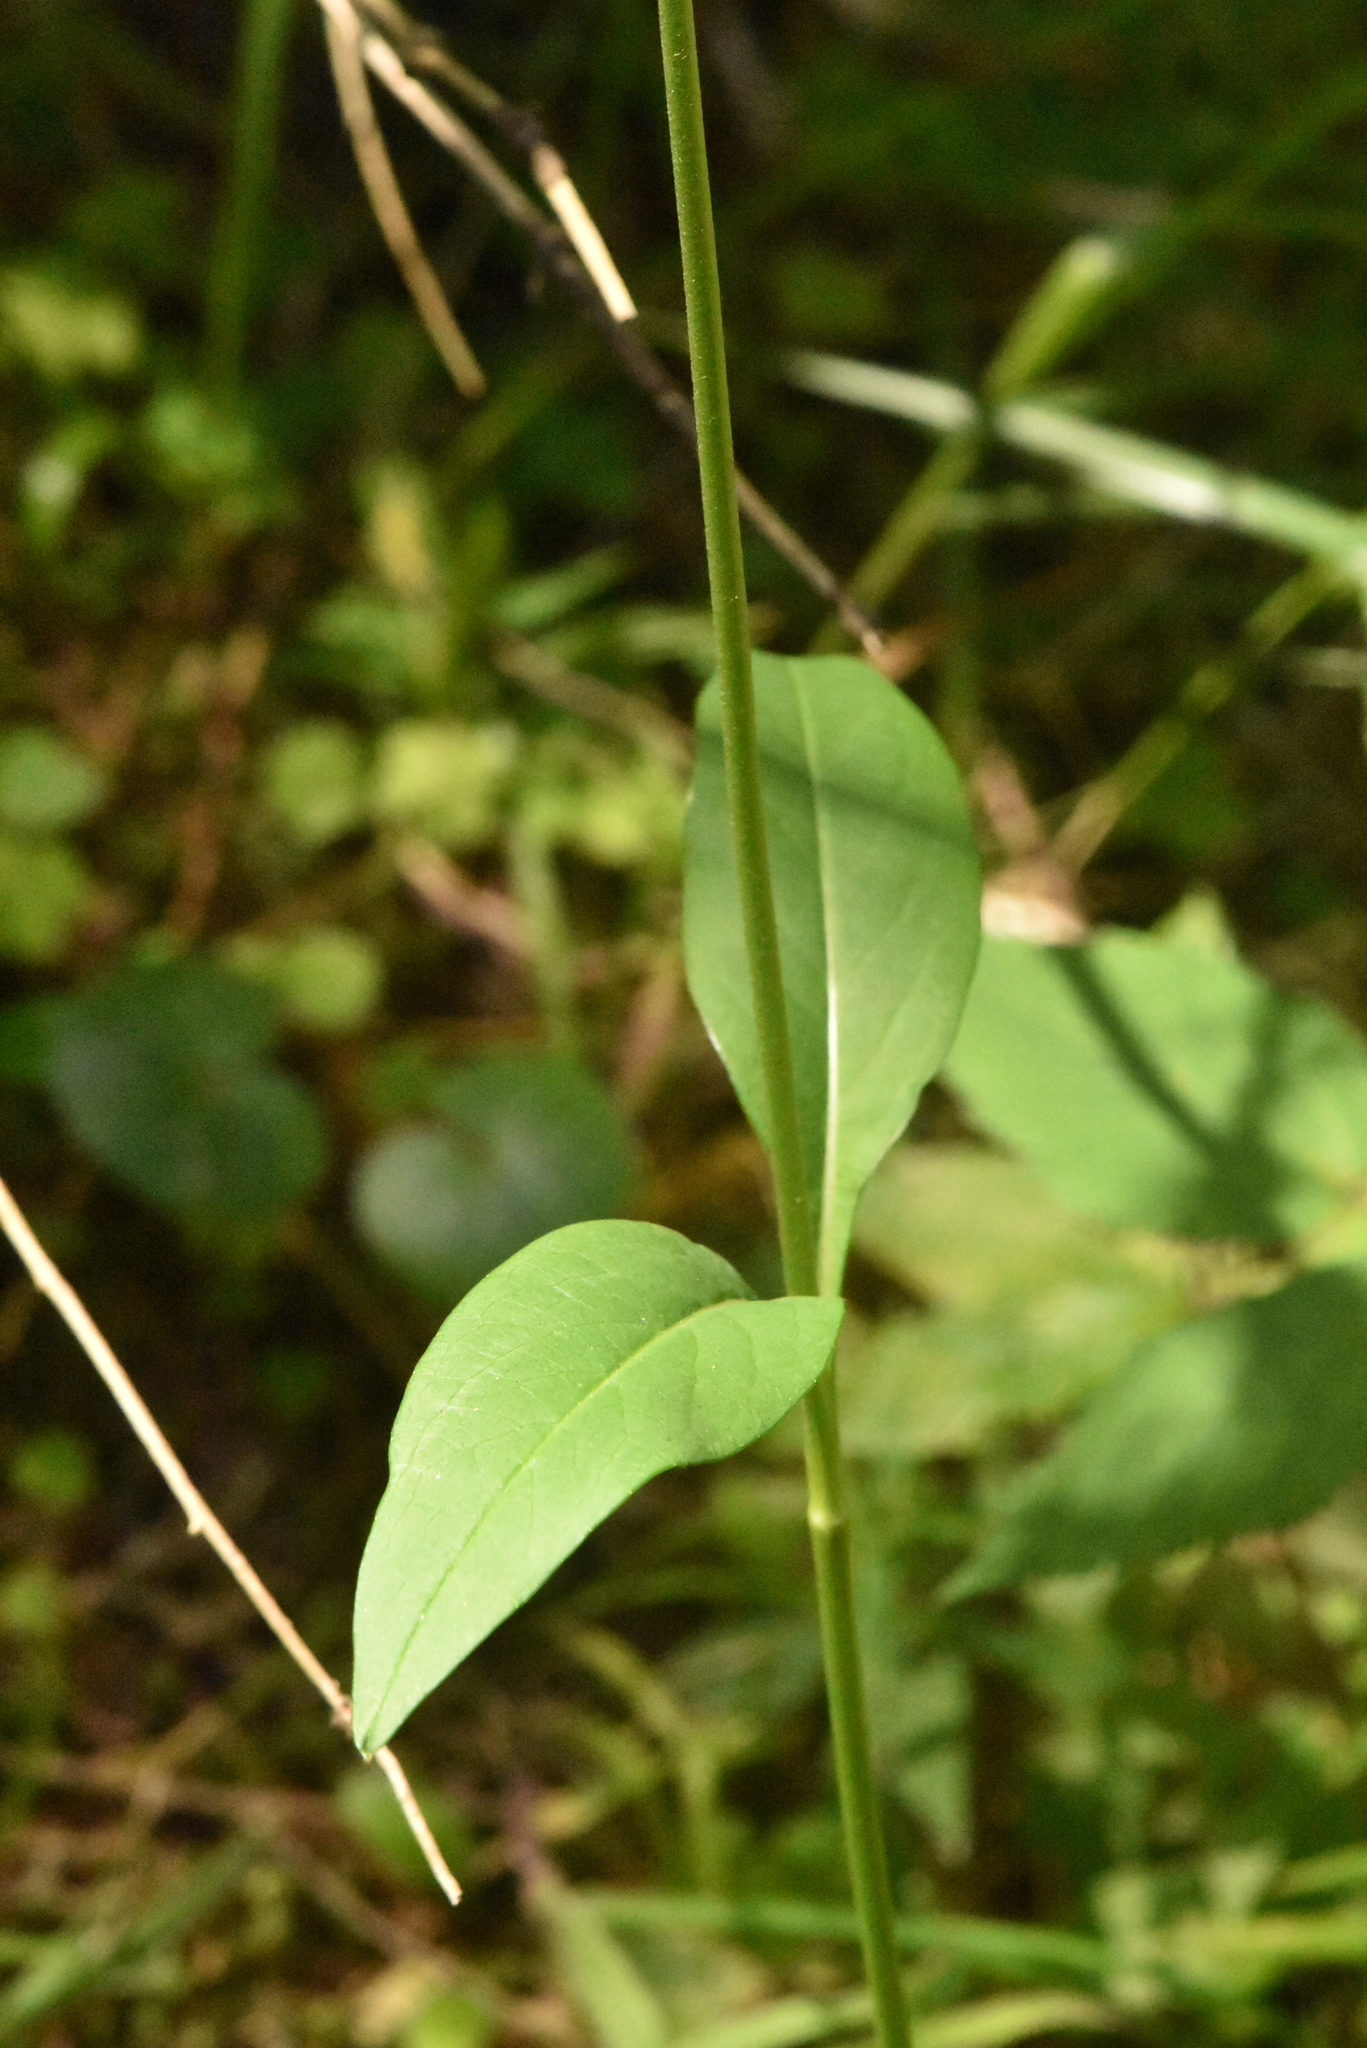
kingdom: Plantae
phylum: Tracheophyta
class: Magnoliopsida
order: Dipsacales
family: Caprifoliaceae
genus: Succisa
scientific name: Succisa pratensis
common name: Devil's-bit
